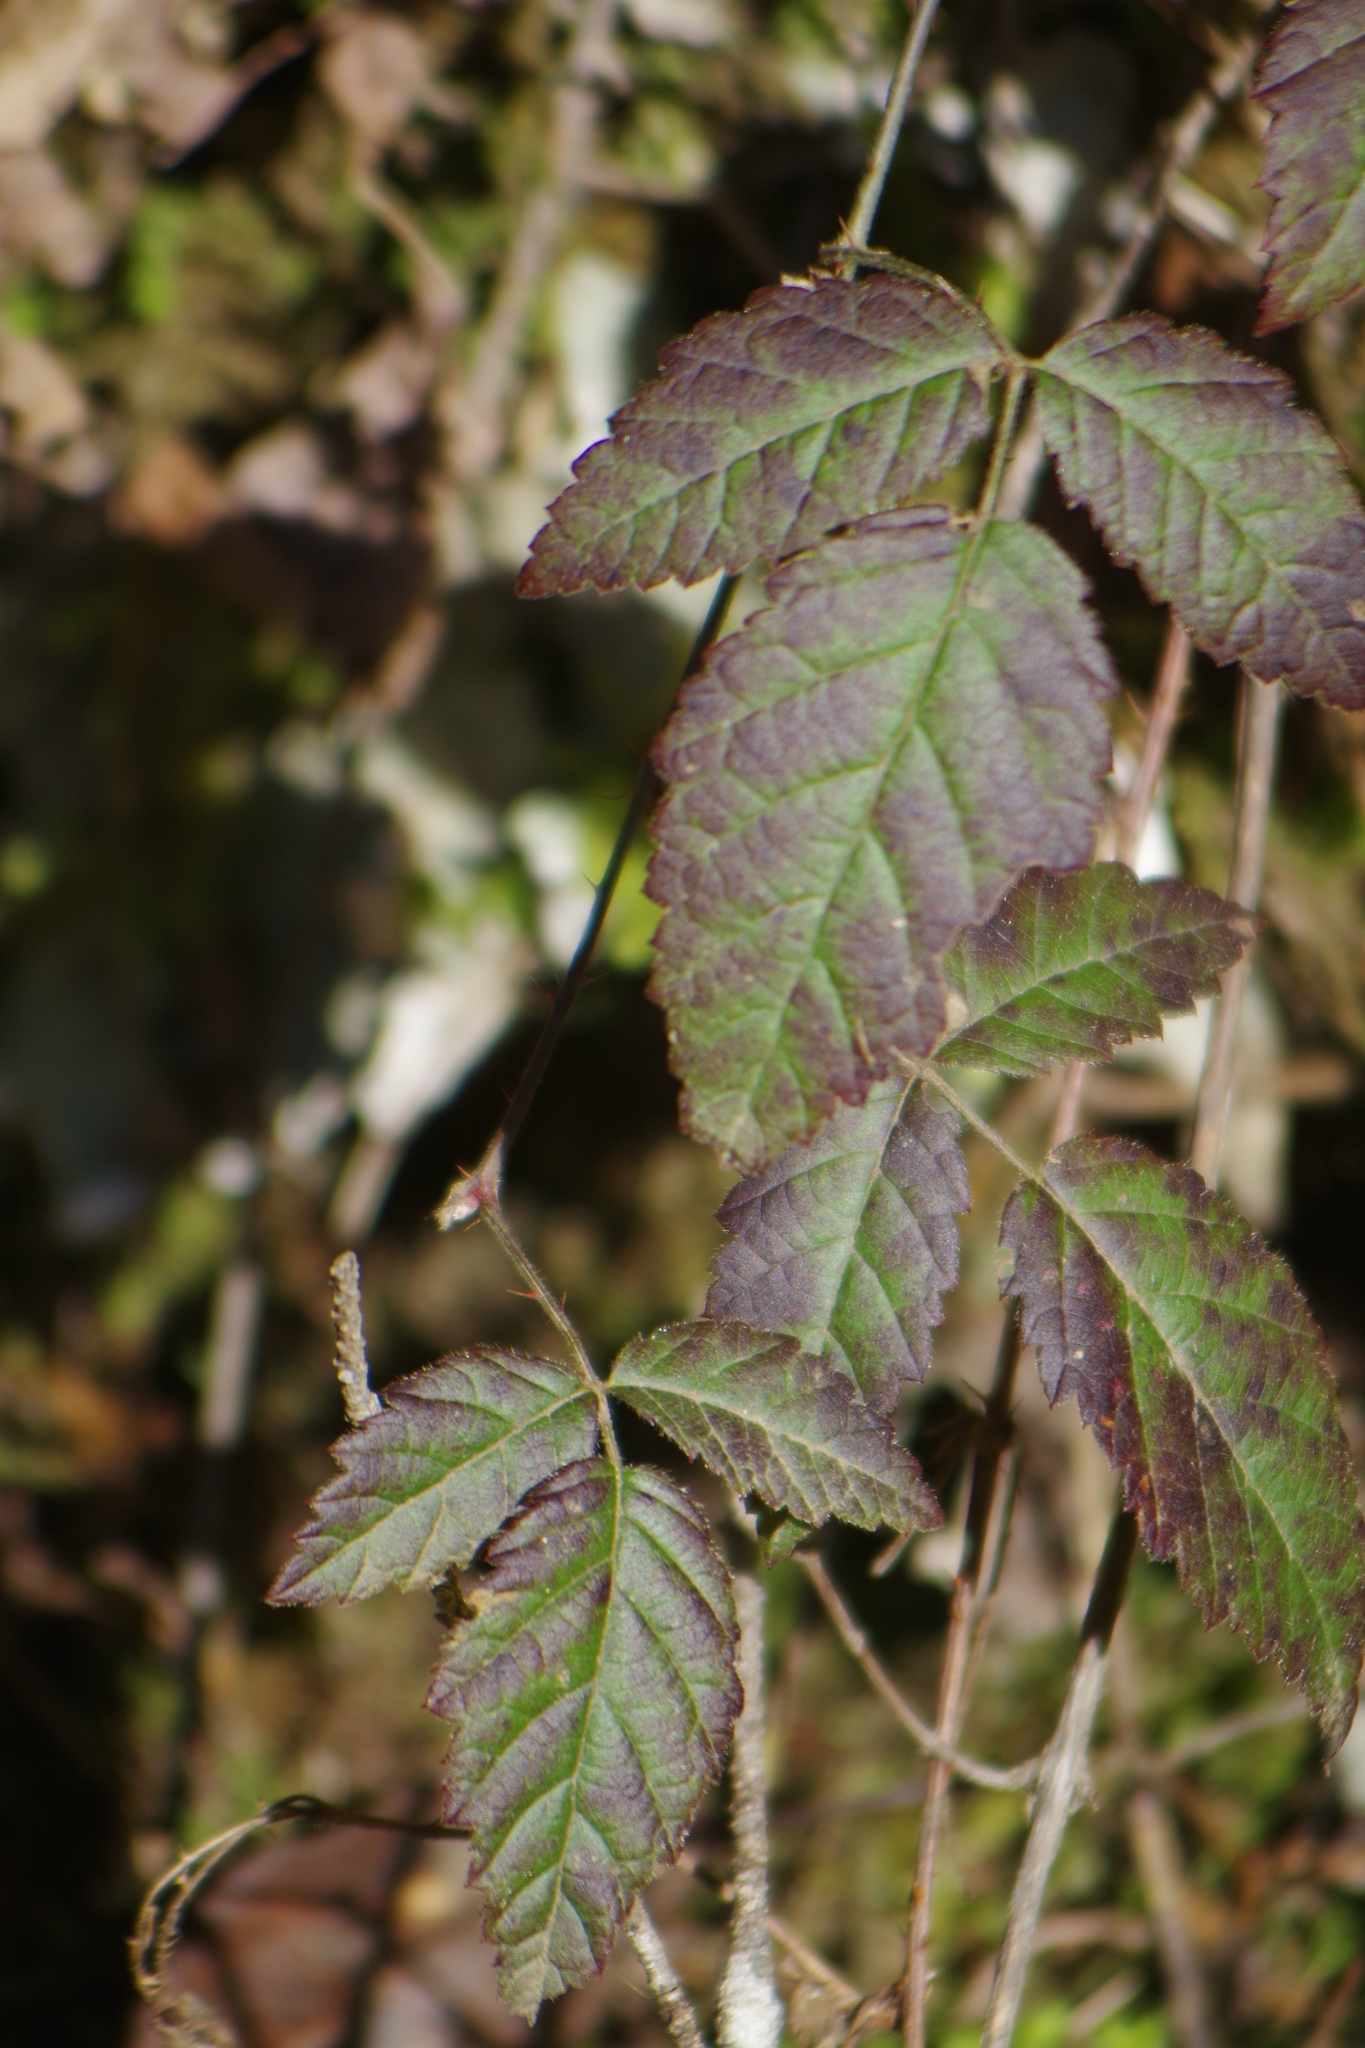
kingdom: Plantae
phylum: Tracheophyta
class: Magnoliopsida
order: Rosales
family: Rosaceae
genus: Rubus
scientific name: Rubus ursinus
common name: Pacific blackberry
